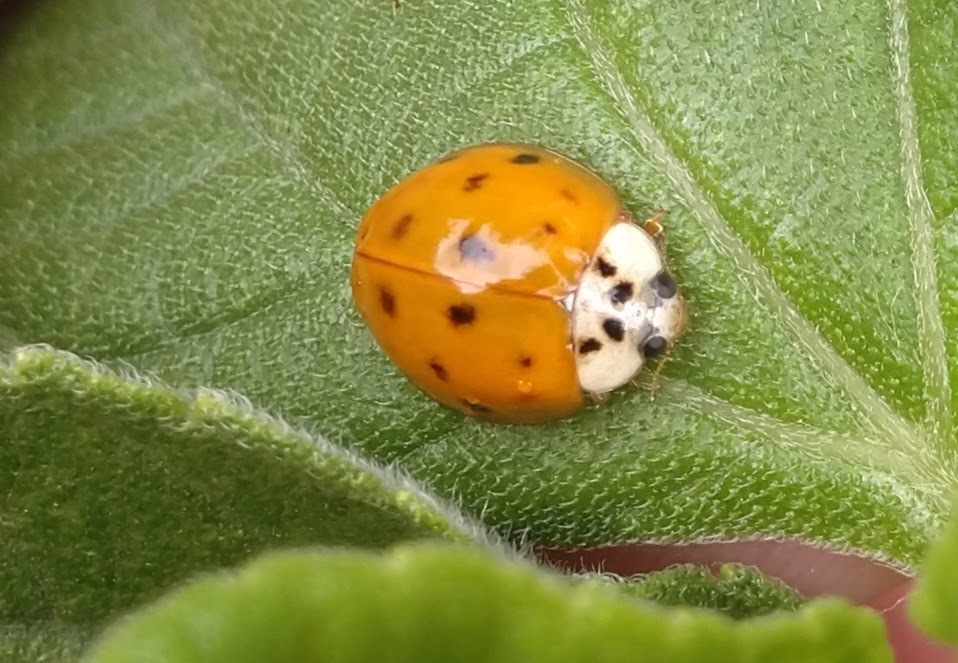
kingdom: Animalia
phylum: Arthropoda
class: Insecta
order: Coleoptera
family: Coccinellidae
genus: Harmonia
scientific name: Harmonia axyridis
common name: Harlequin ladybird
